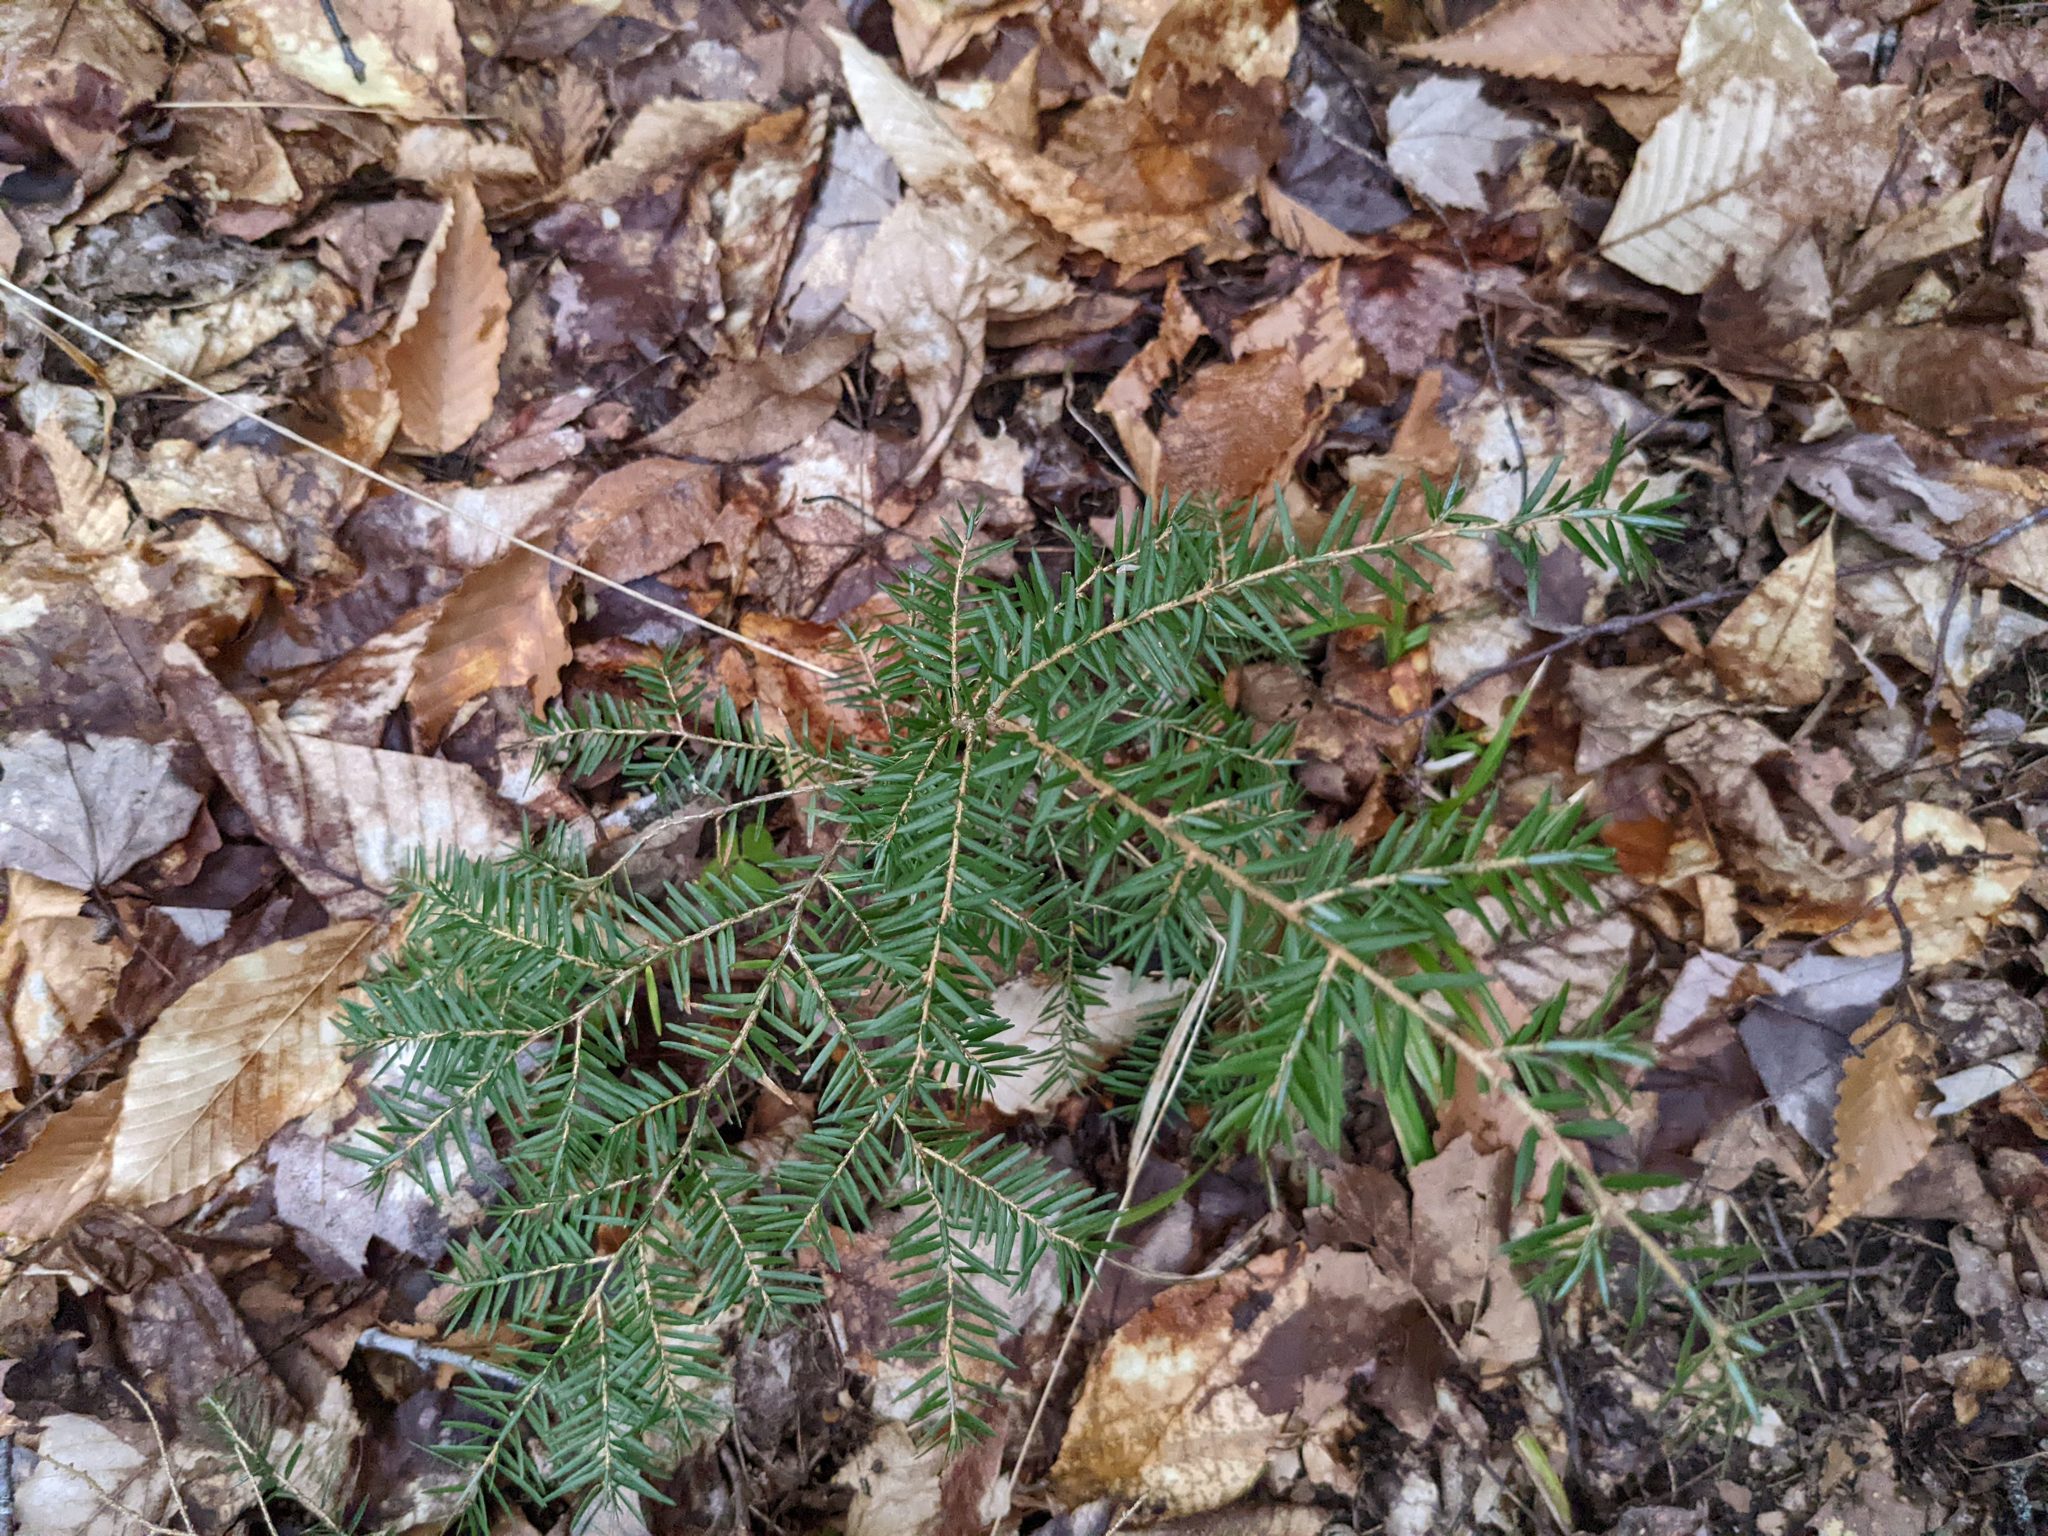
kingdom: Plantae
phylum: Tracheophyta
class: Pinopsida
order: Pinales
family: Pinaceae
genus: Tsuga
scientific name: Tsuga canadensis
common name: Eastern hemlock
